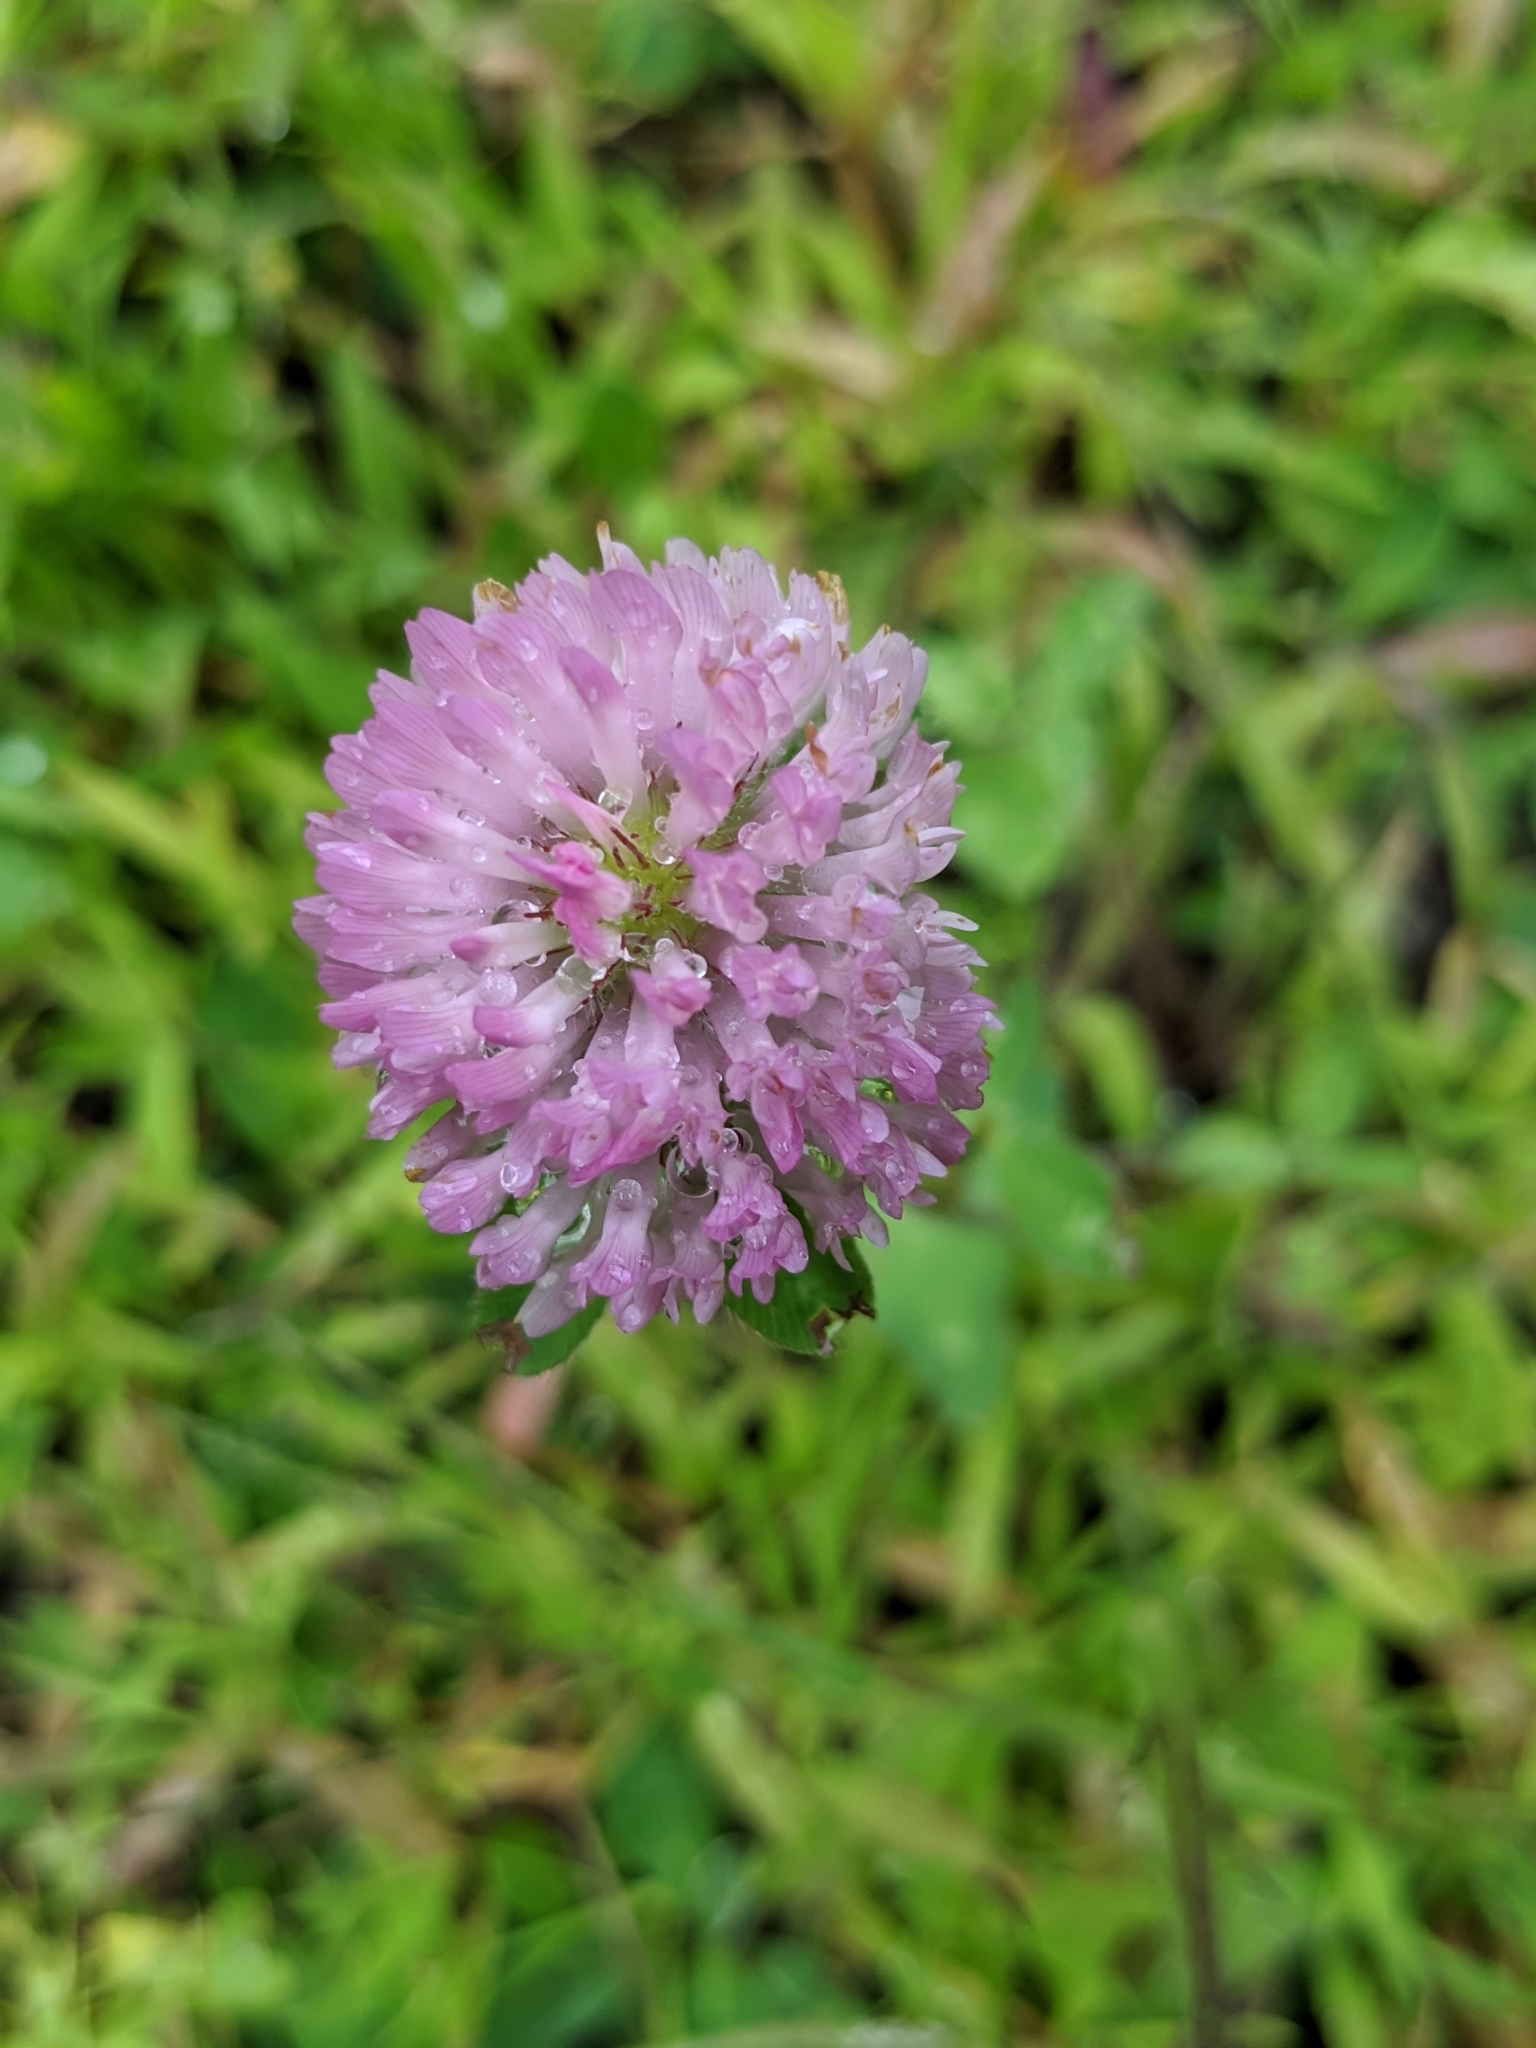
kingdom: Plantae
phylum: Tracheophyta
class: Magnoliopsida
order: Fabales
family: Fabaceae
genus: Trifolium
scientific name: Trifolium pratense
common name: Red clover
